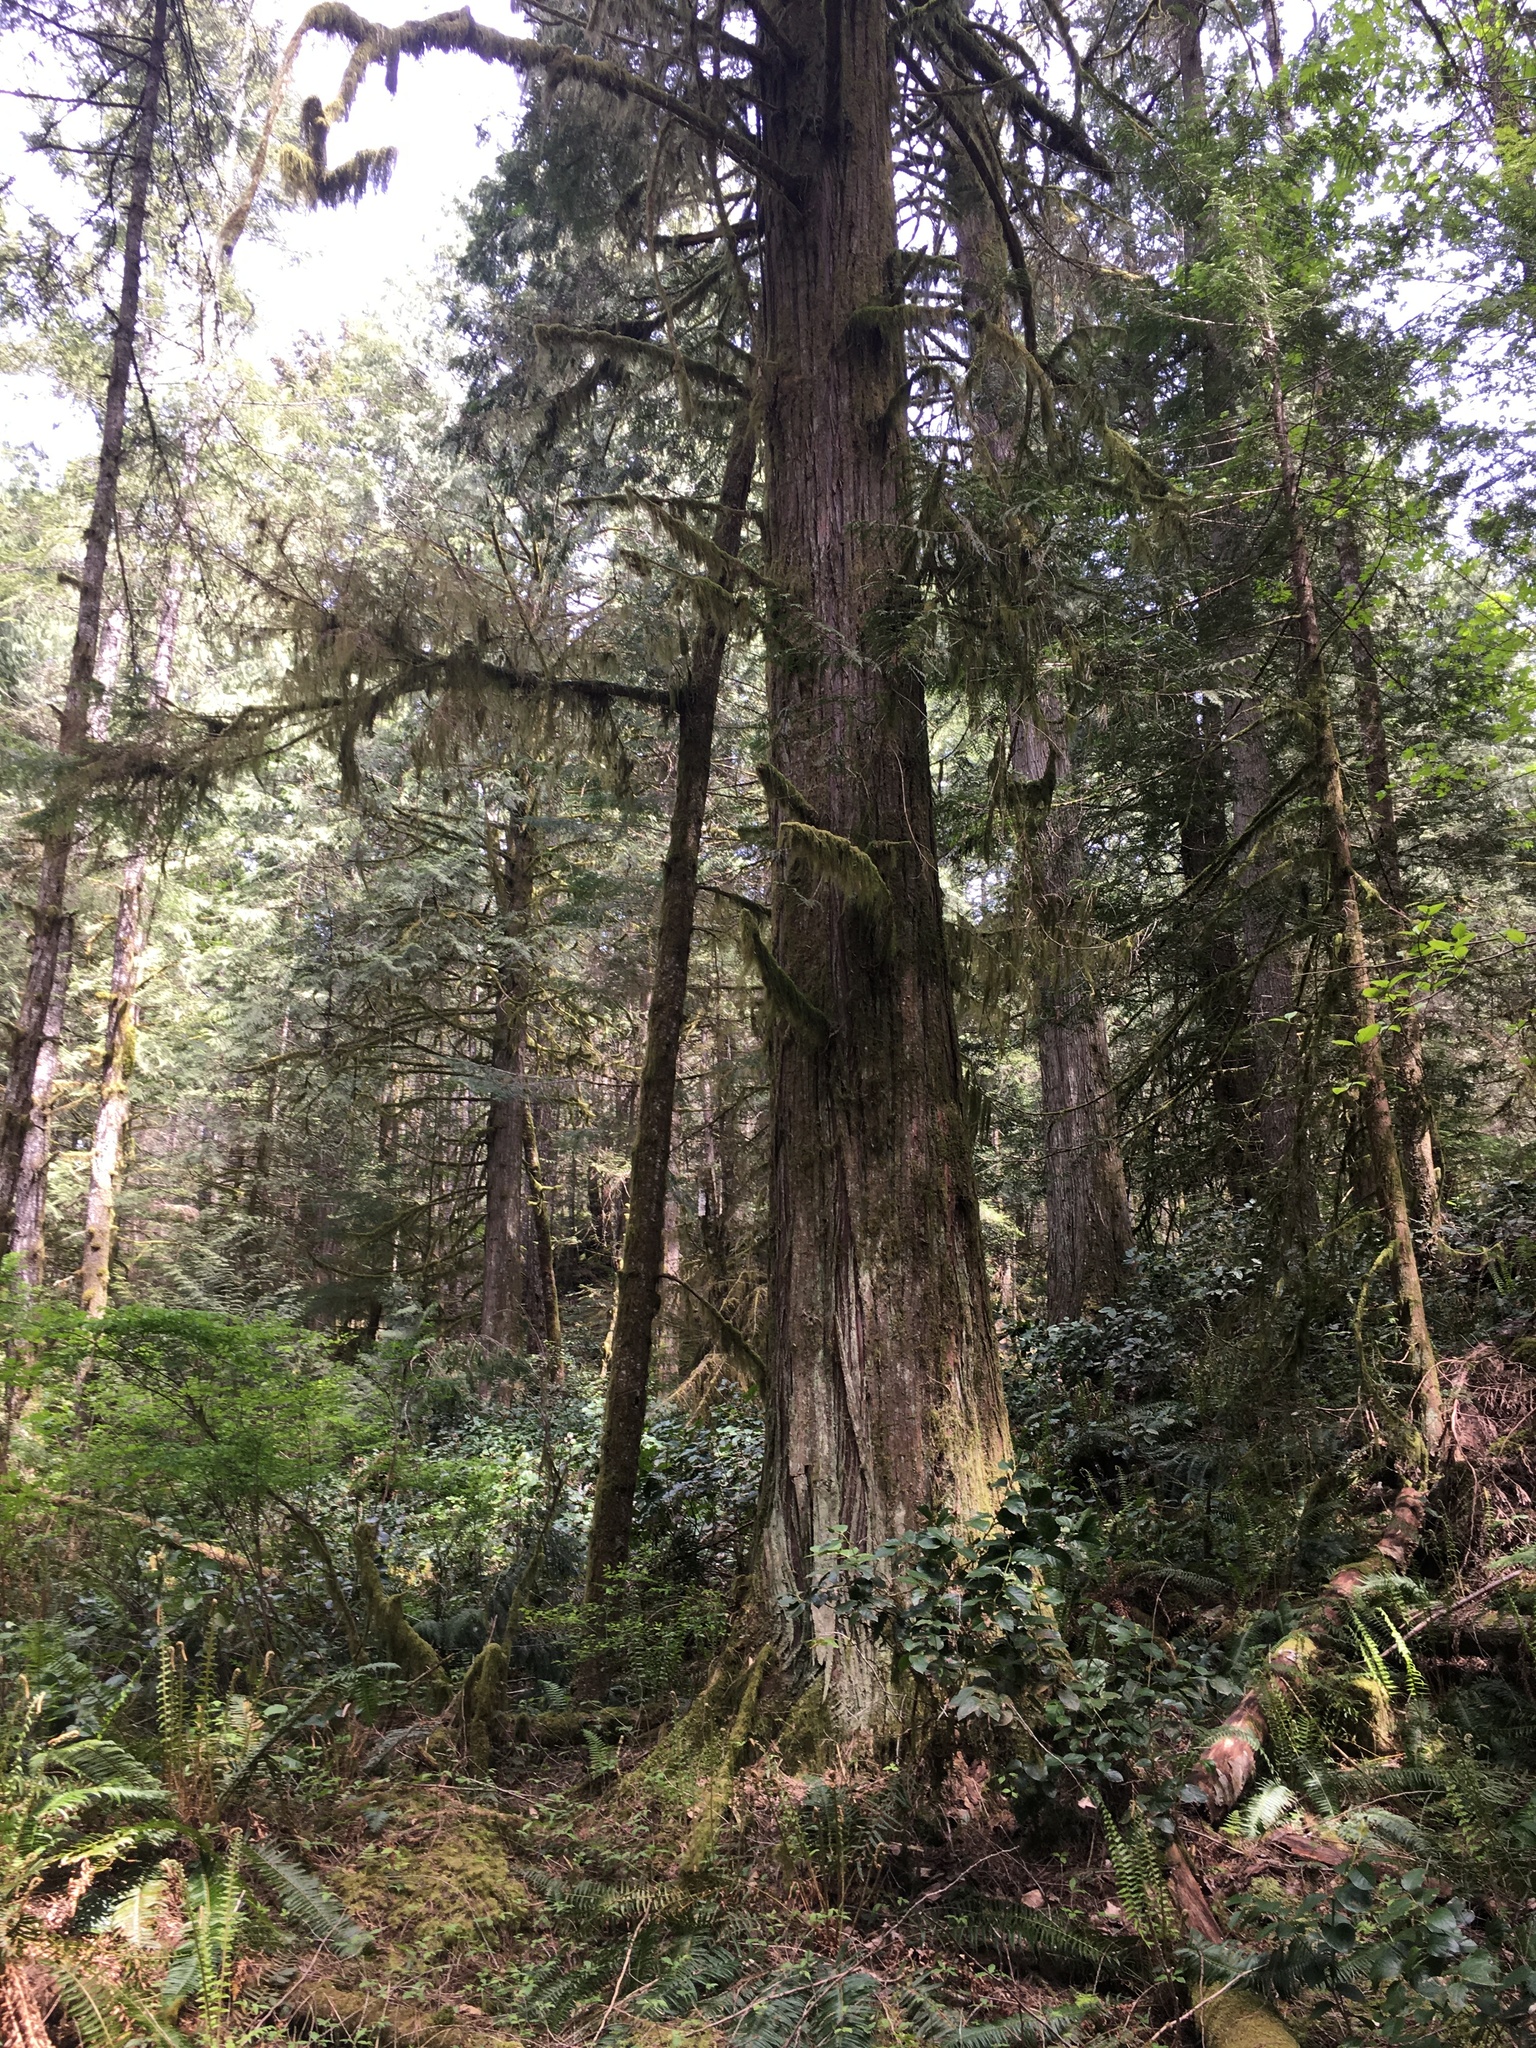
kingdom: Plantae
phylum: Tracheophyta
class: Pinopsida
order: Pinales
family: Cupressaceae
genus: Thuja
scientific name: Thuja plicata
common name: Western red-cedar
